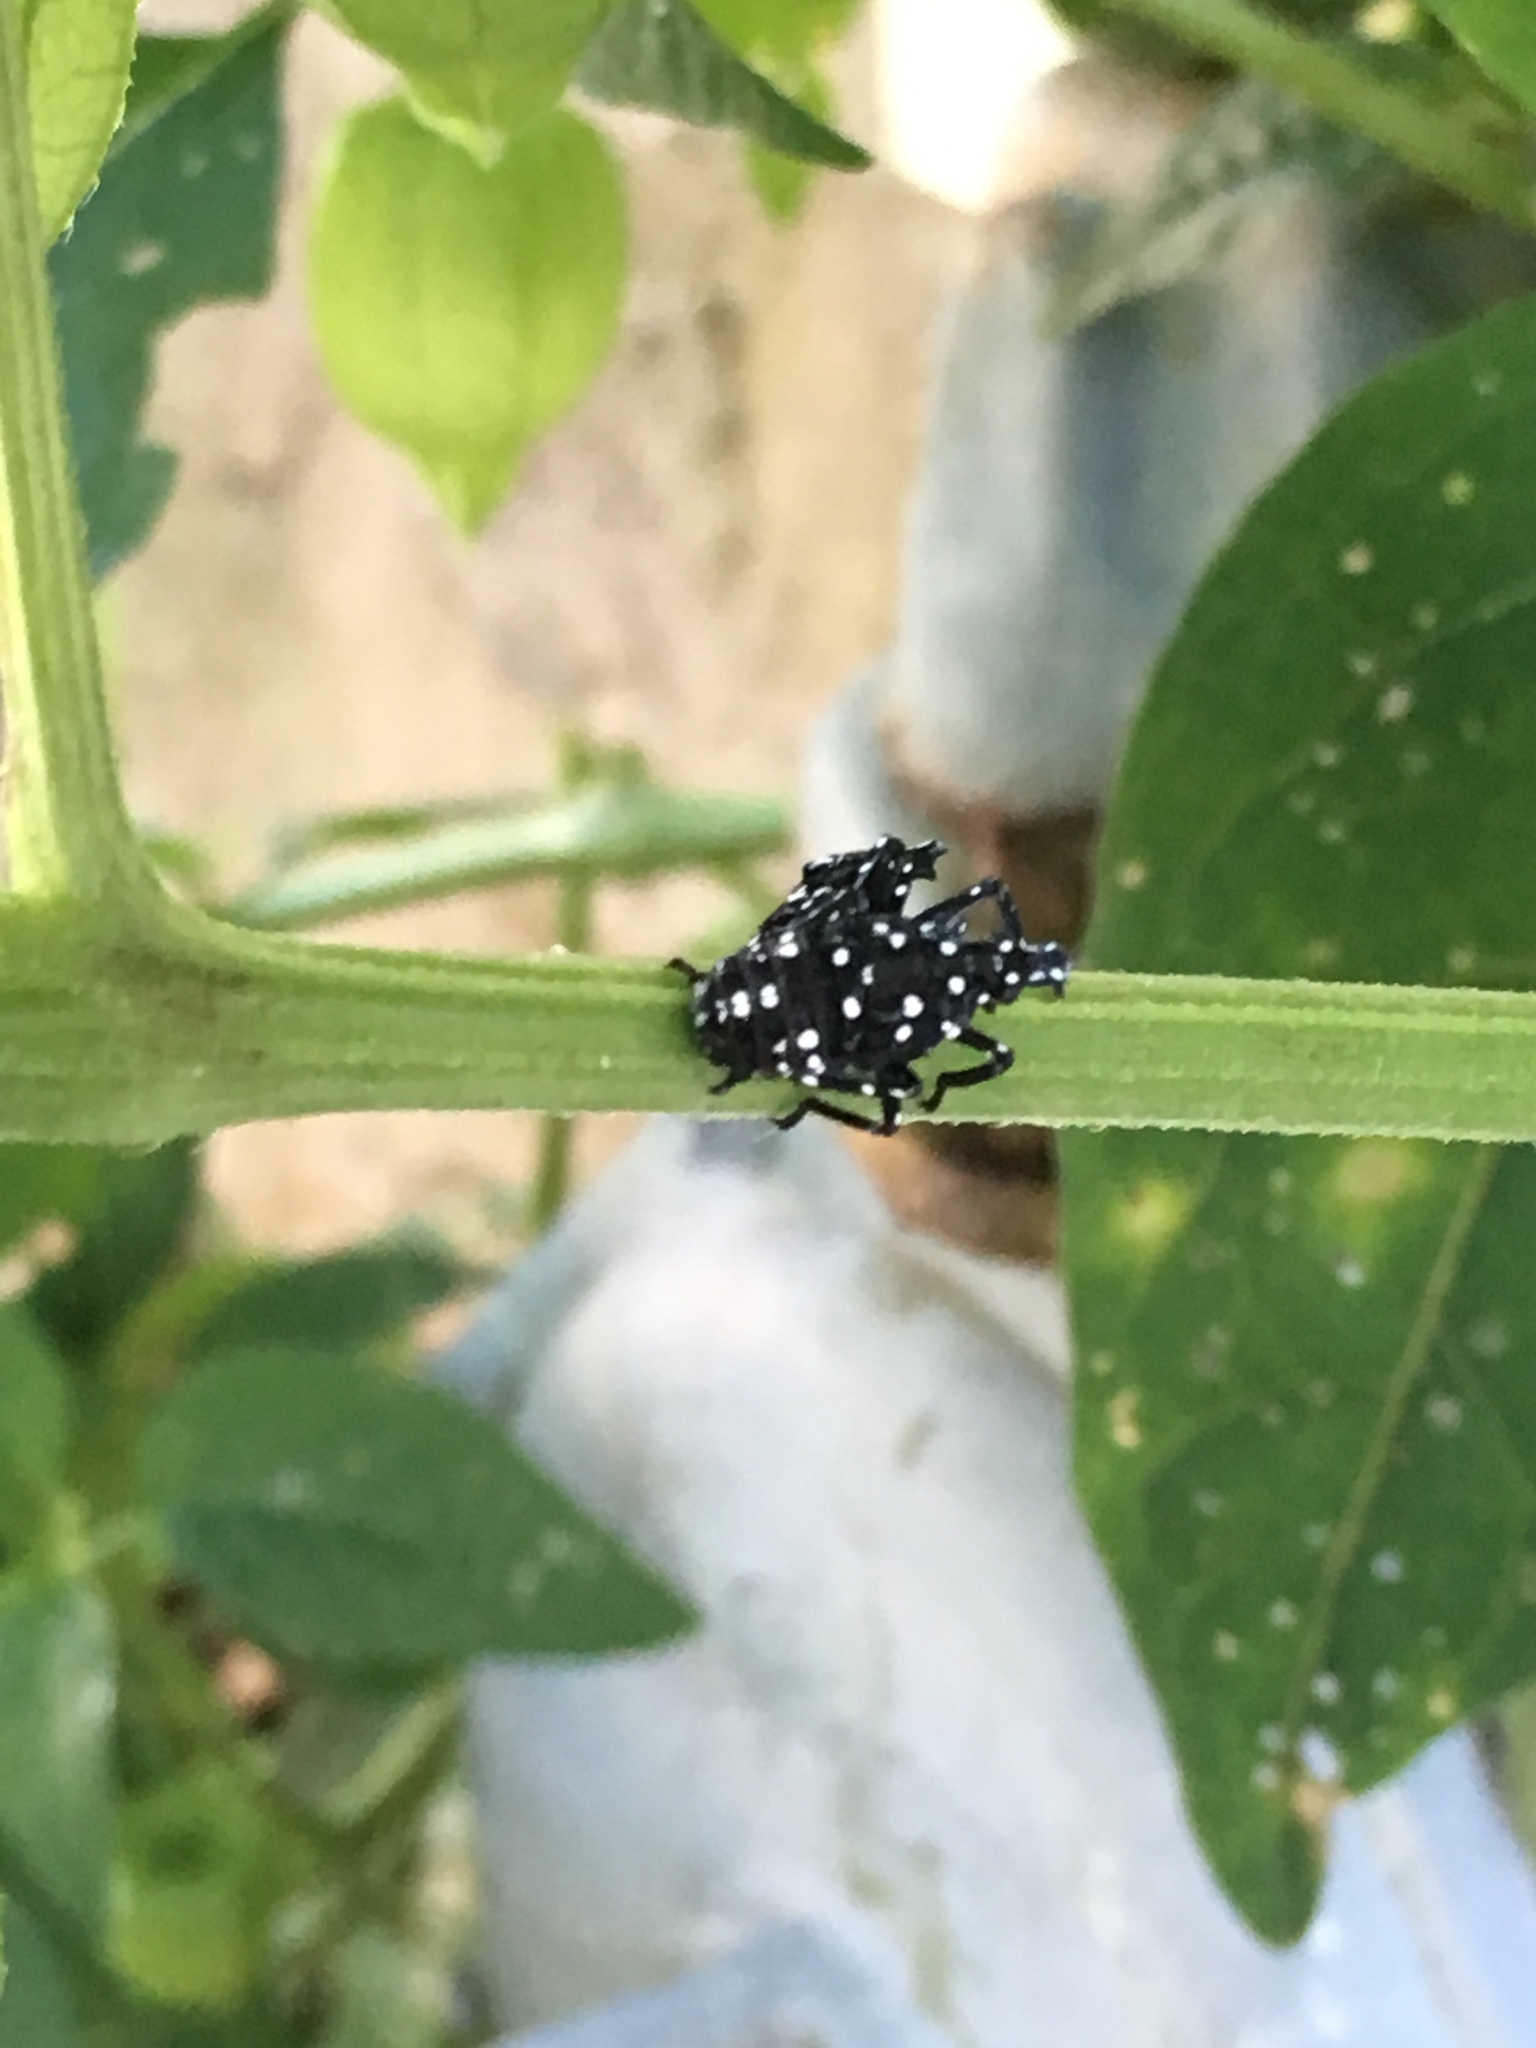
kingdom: Animalia
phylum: Arthropoda
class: Insecta
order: Hemiptera
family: Fulgoridae
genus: Lycorma
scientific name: Lycorma delicatula
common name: Spotted lanternfly
